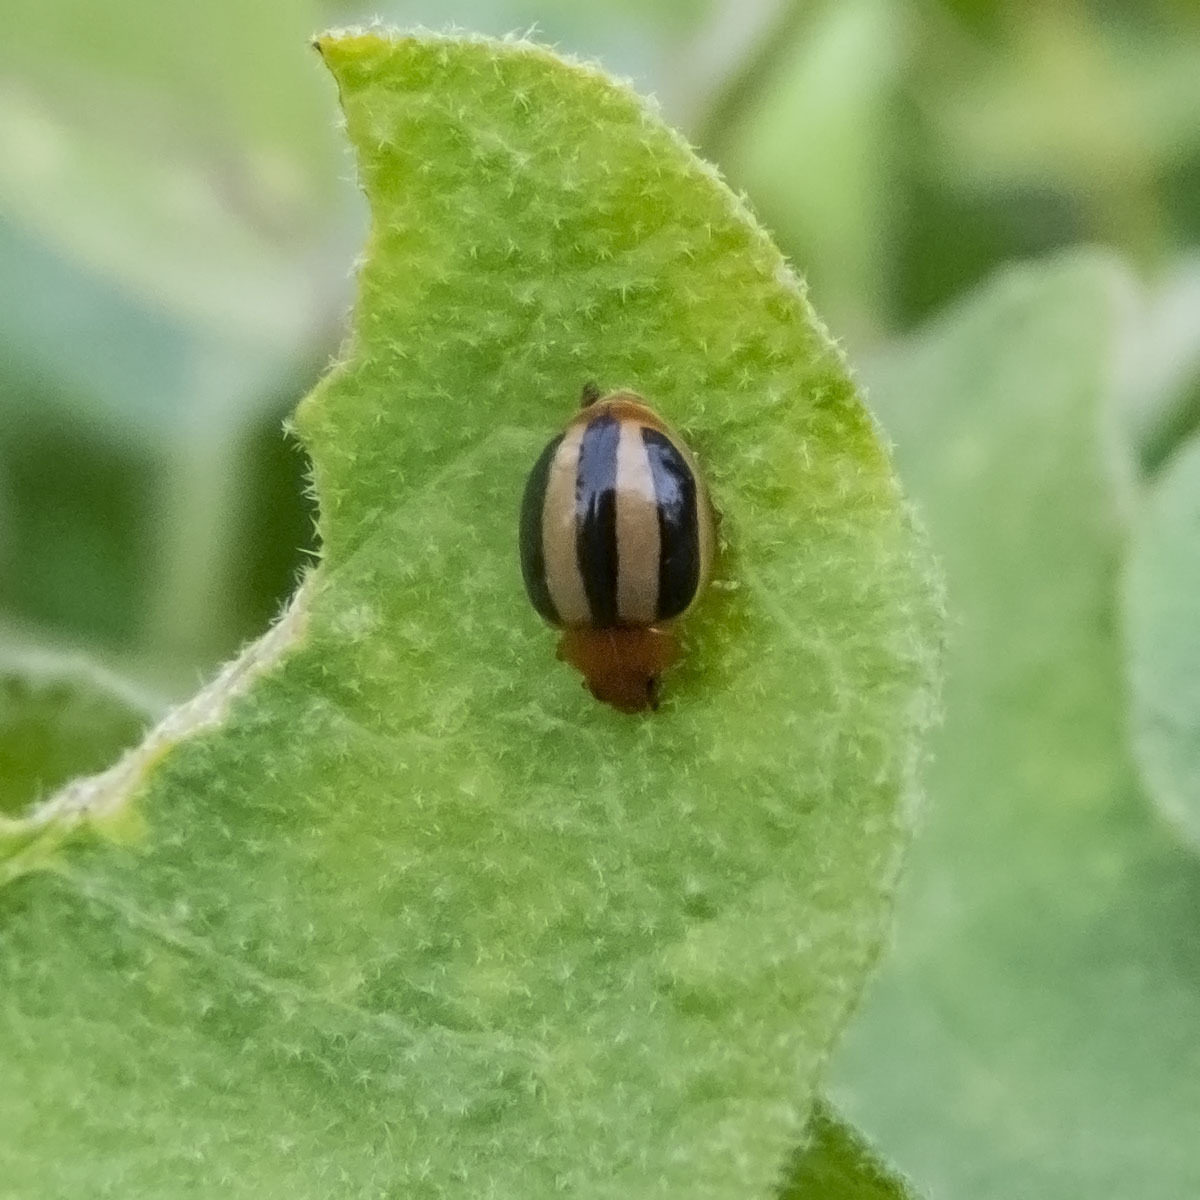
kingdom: Animalia
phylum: Arthropoda
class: Insecta
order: Coleoptera
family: Coccinellidae
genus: Brumoides
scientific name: Brumoides suturalis
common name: Threestriped lady beetle
